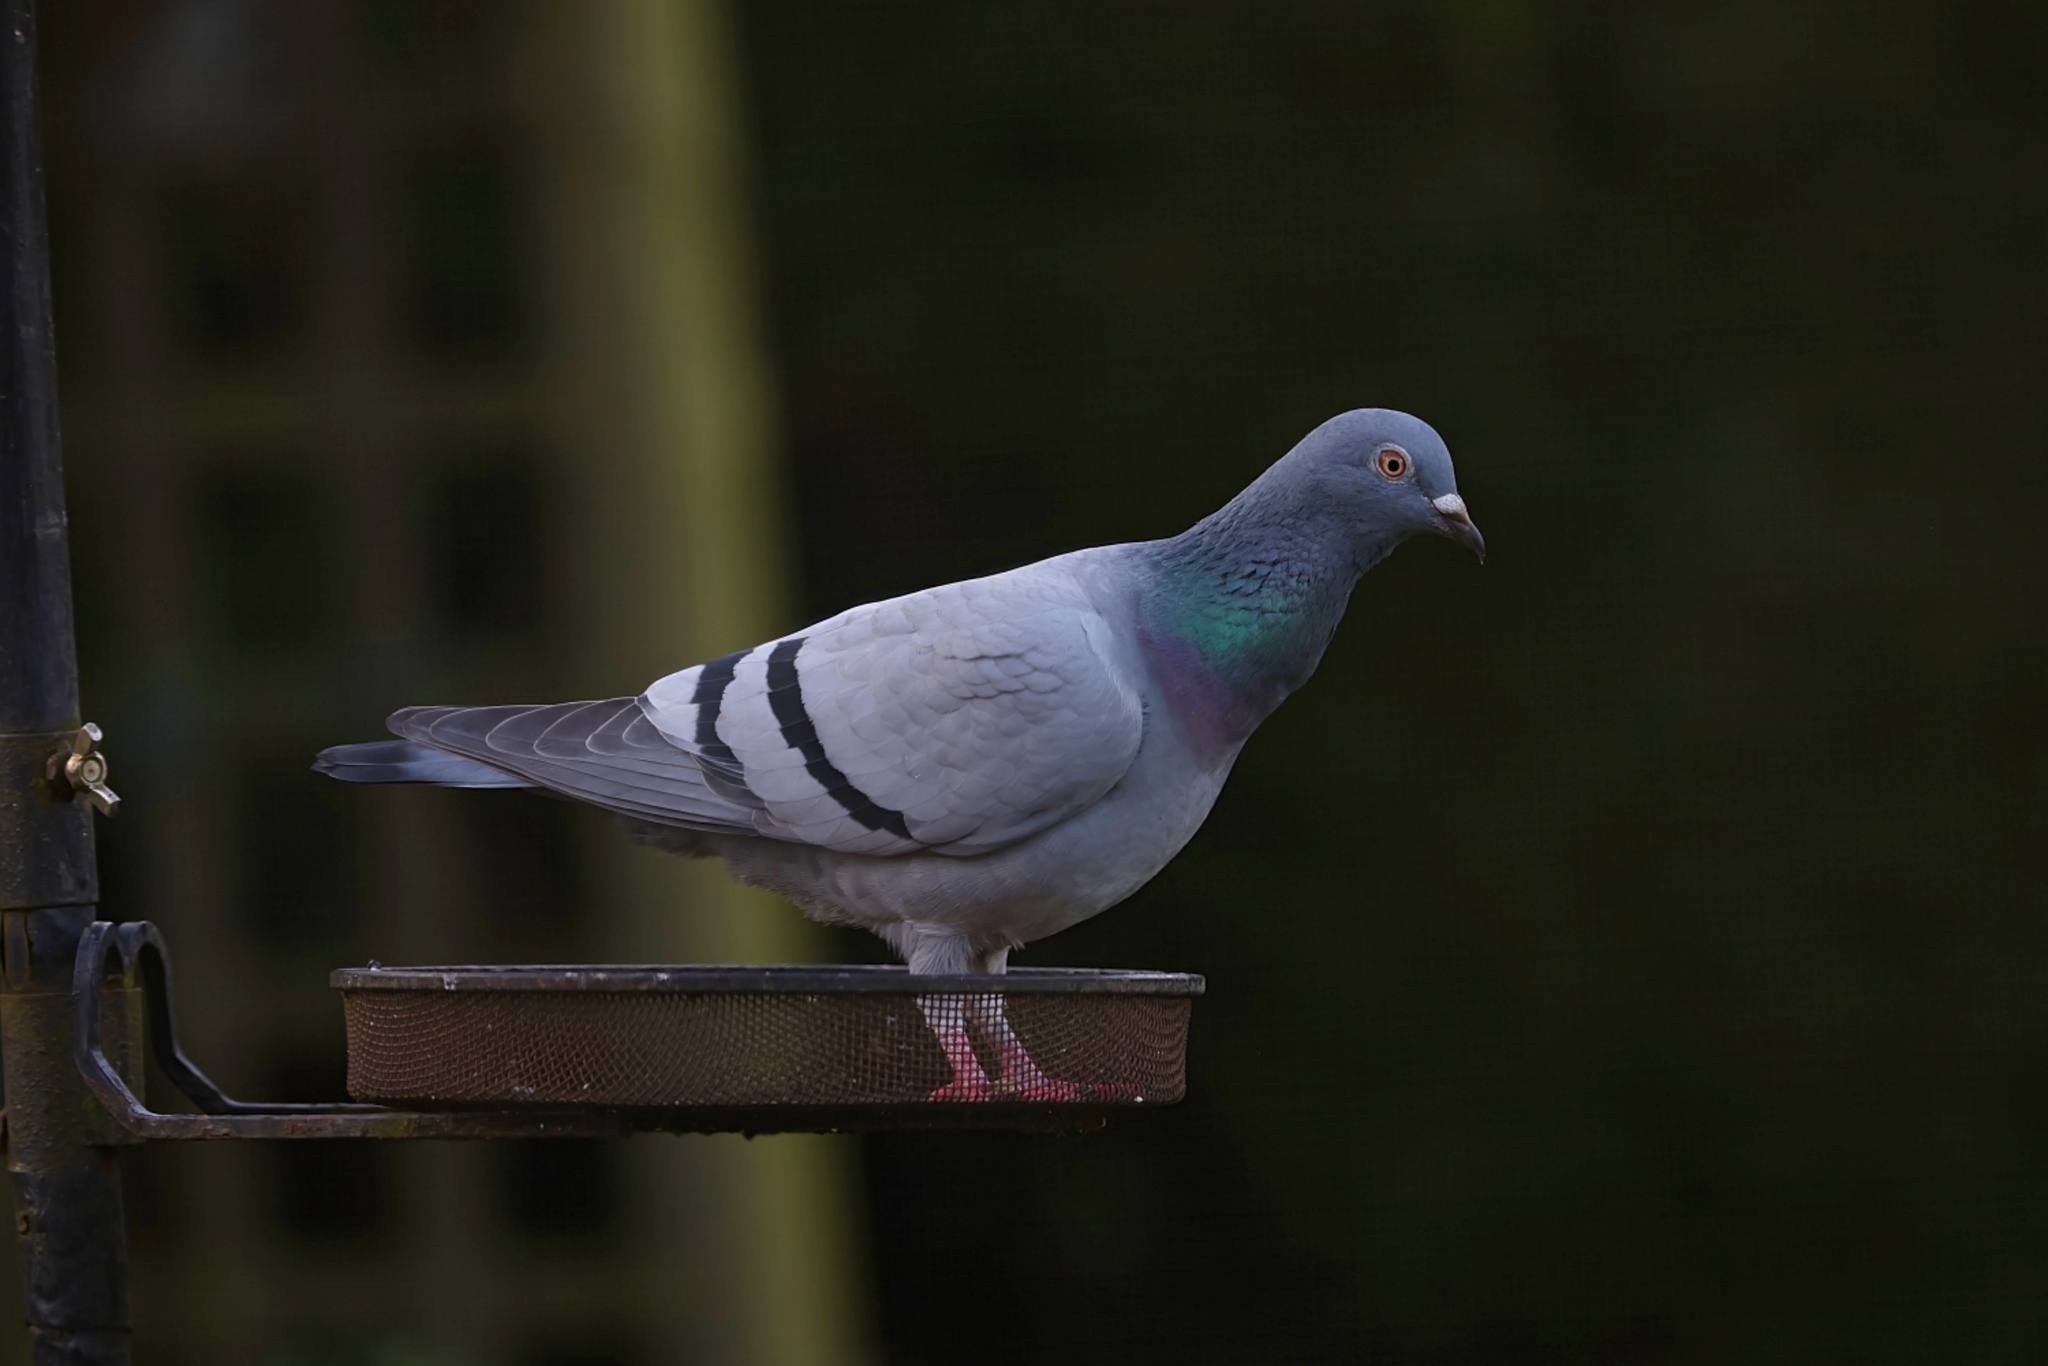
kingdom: Animalia
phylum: Chordata
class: Aves
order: Columbiformes
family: Columbidae
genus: Columba
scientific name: Columba livia
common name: Rock pigeon
